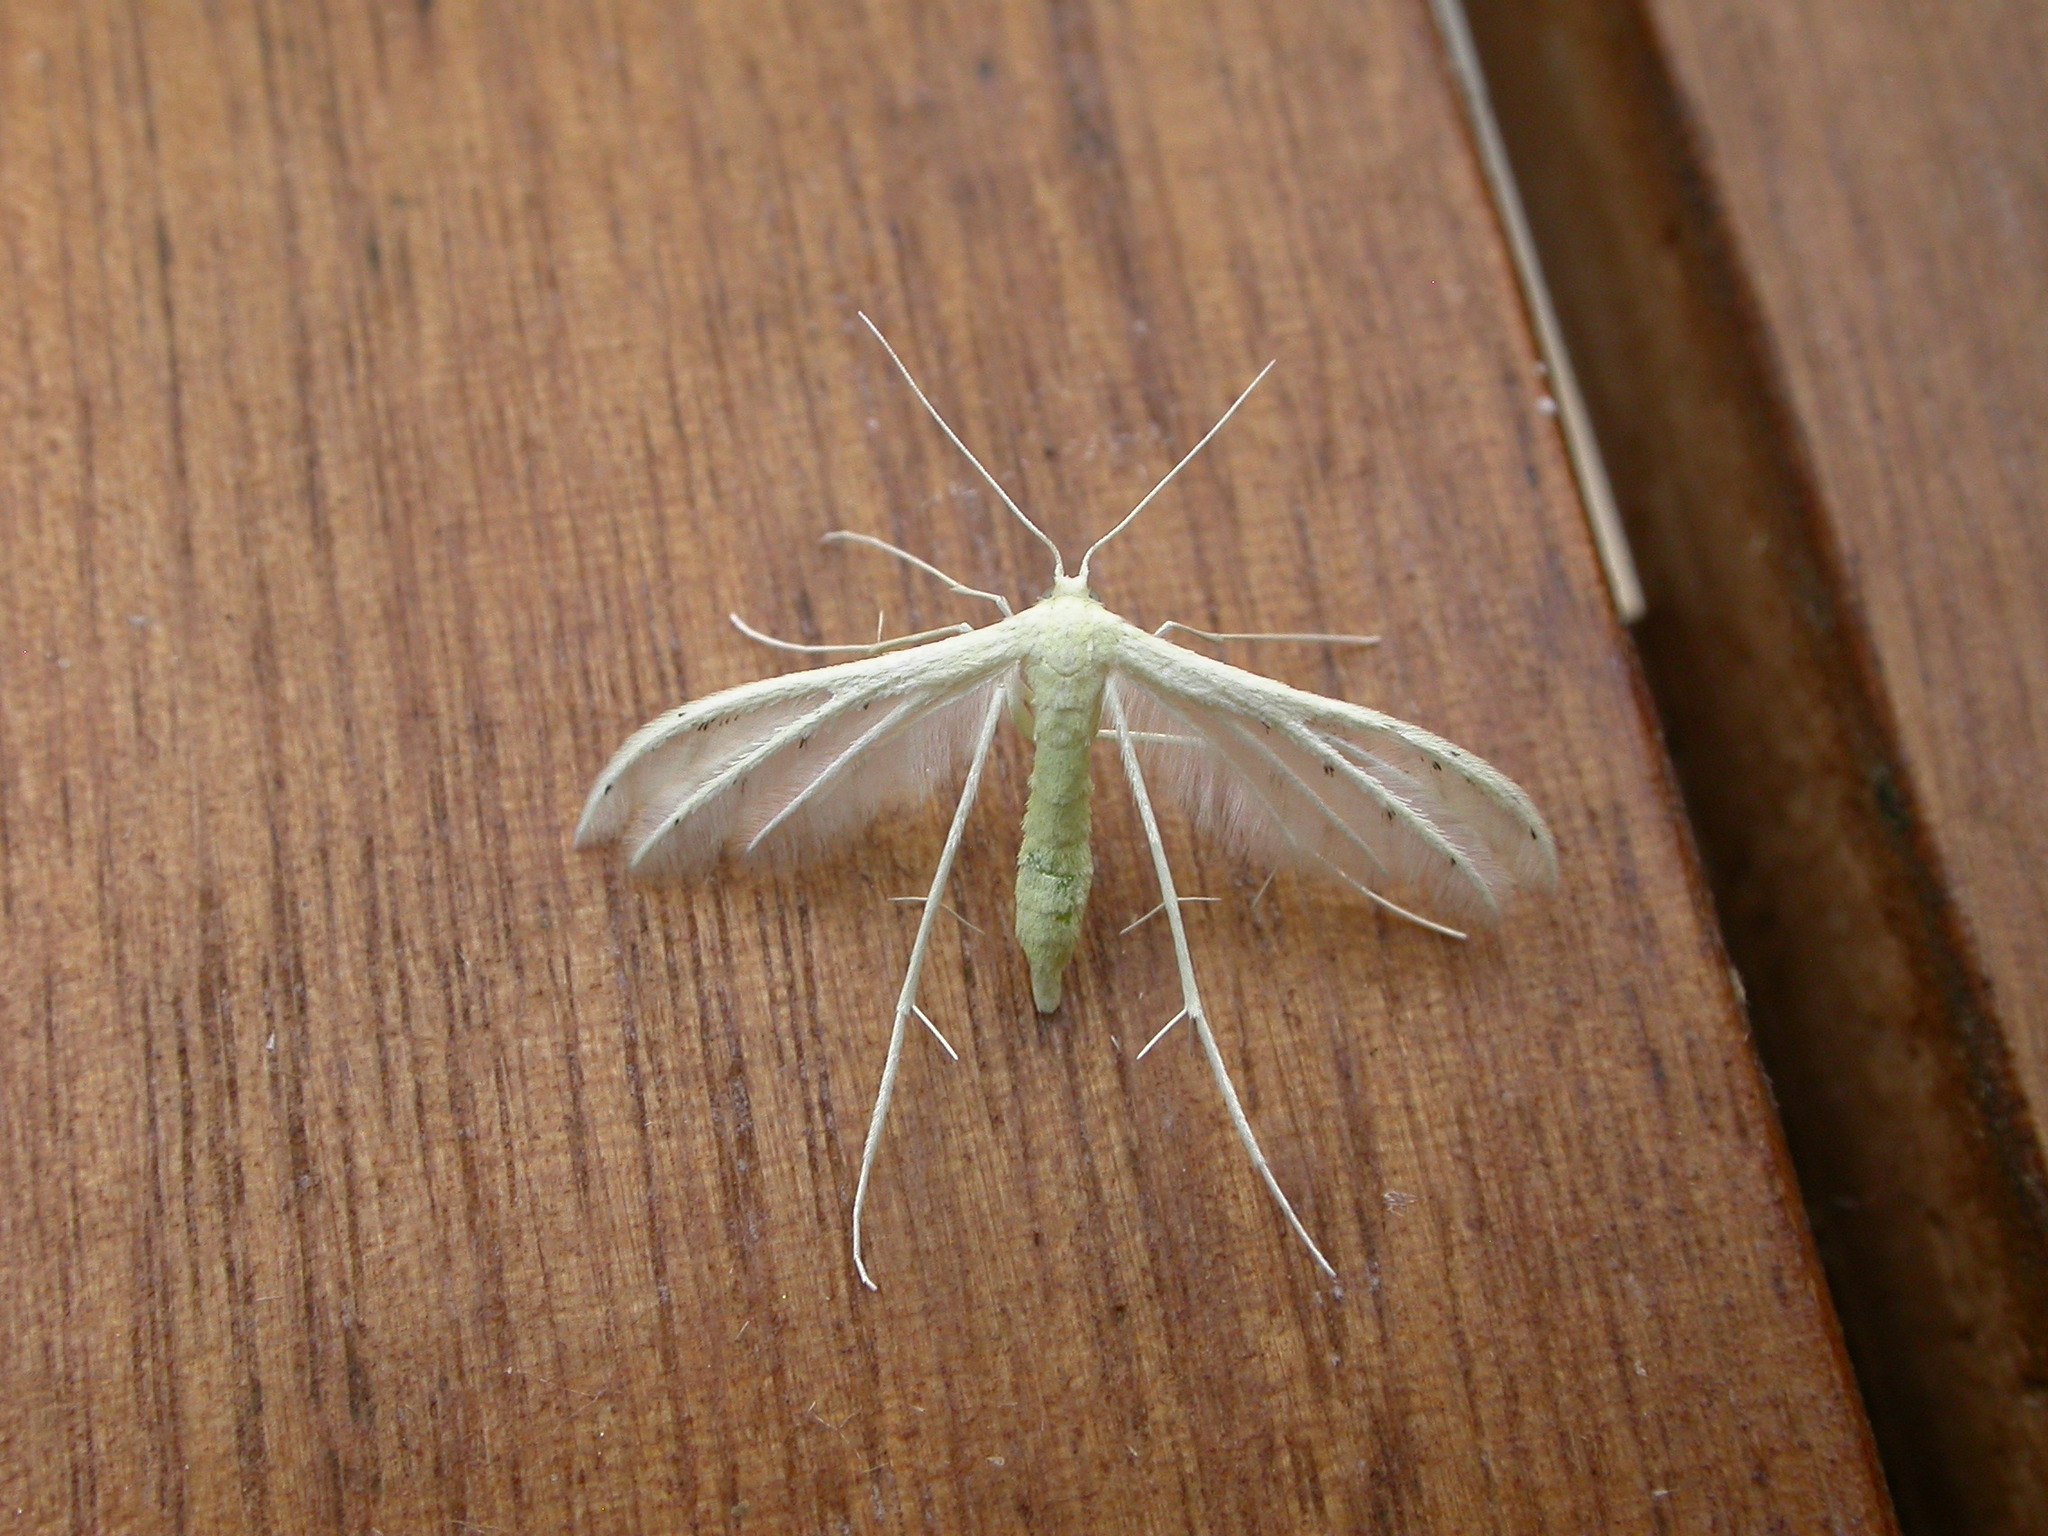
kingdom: Animalia
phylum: Arthropoda
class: Insecta
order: Lepidoptera
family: Pterophoridae
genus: Pterophorus
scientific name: Pterophorus albidus
